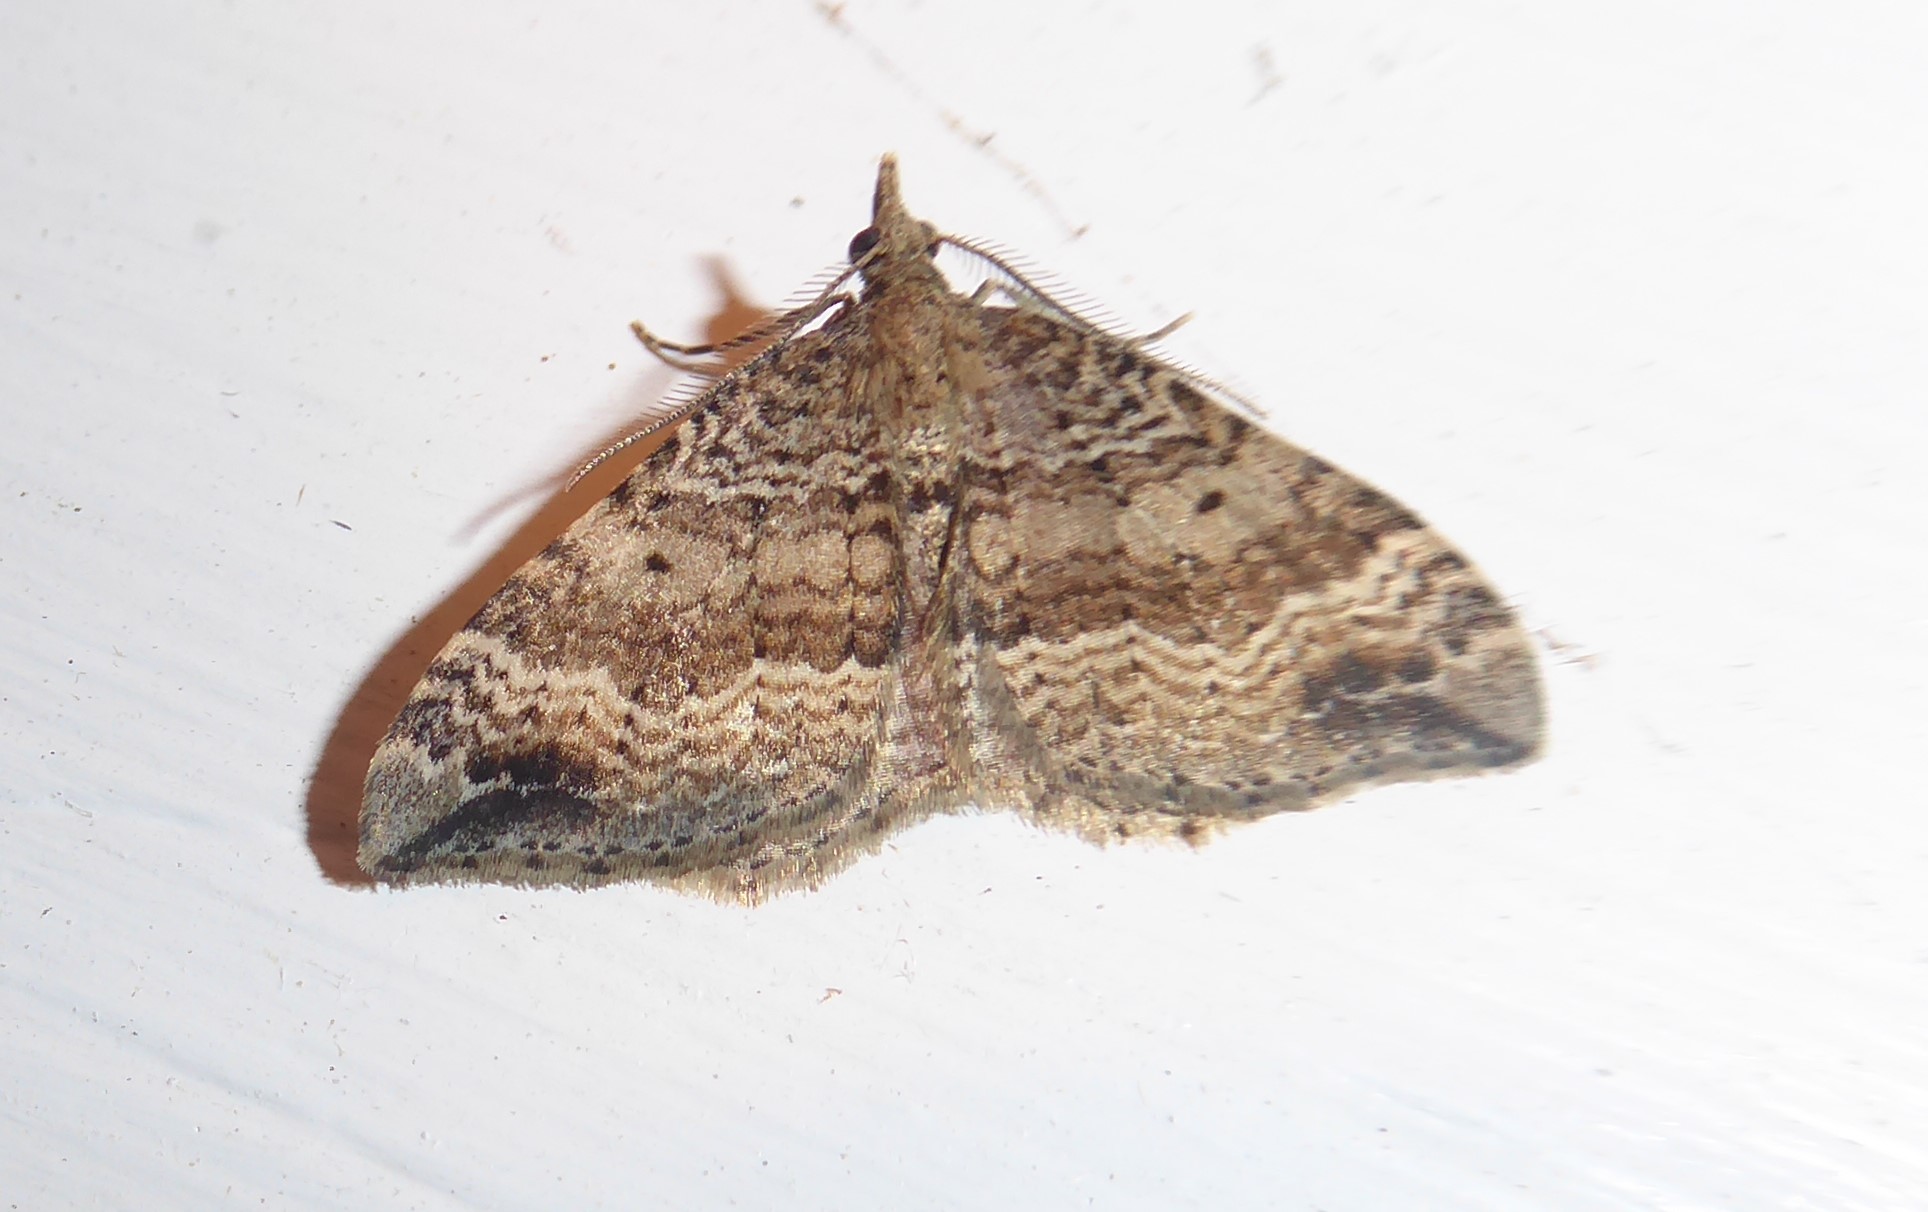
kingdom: Animalia
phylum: Arthropoda
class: Insecta
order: Lepidoptera
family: Geometridae
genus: Homodotis
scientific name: Homodotis falcata
